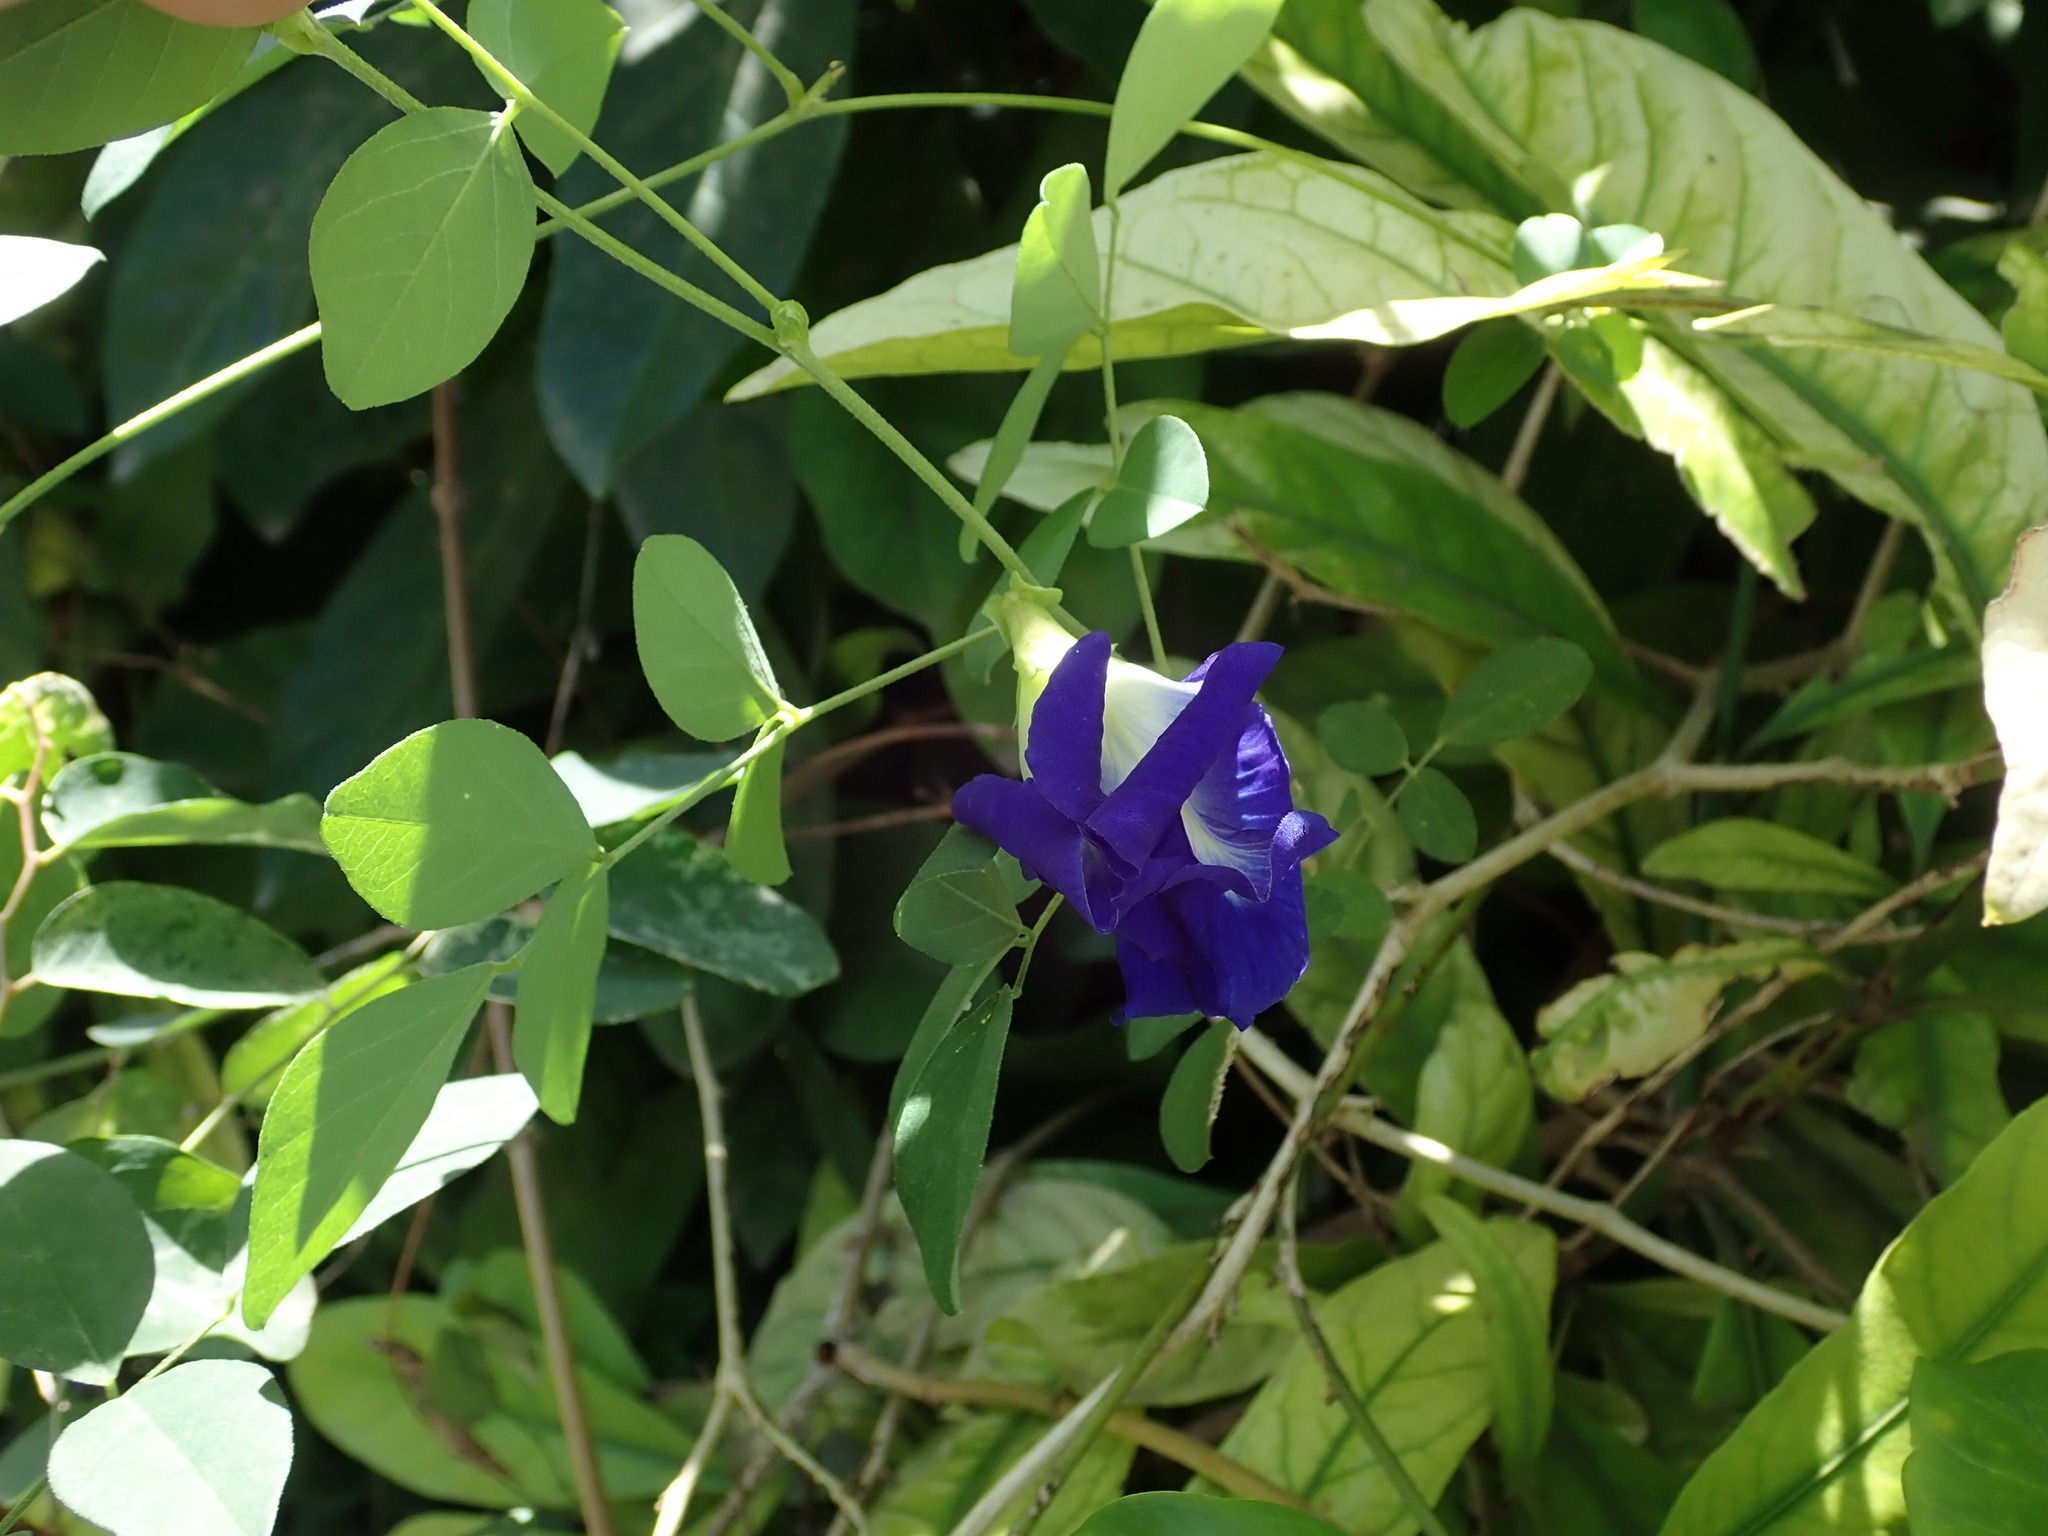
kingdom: Plantae
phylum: Tracheophyta
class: Magnoliopsida
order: Fabales
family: Fabaceae
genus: Clitoria
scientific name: Clitoria ternatea
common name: Asian pigeonwings
